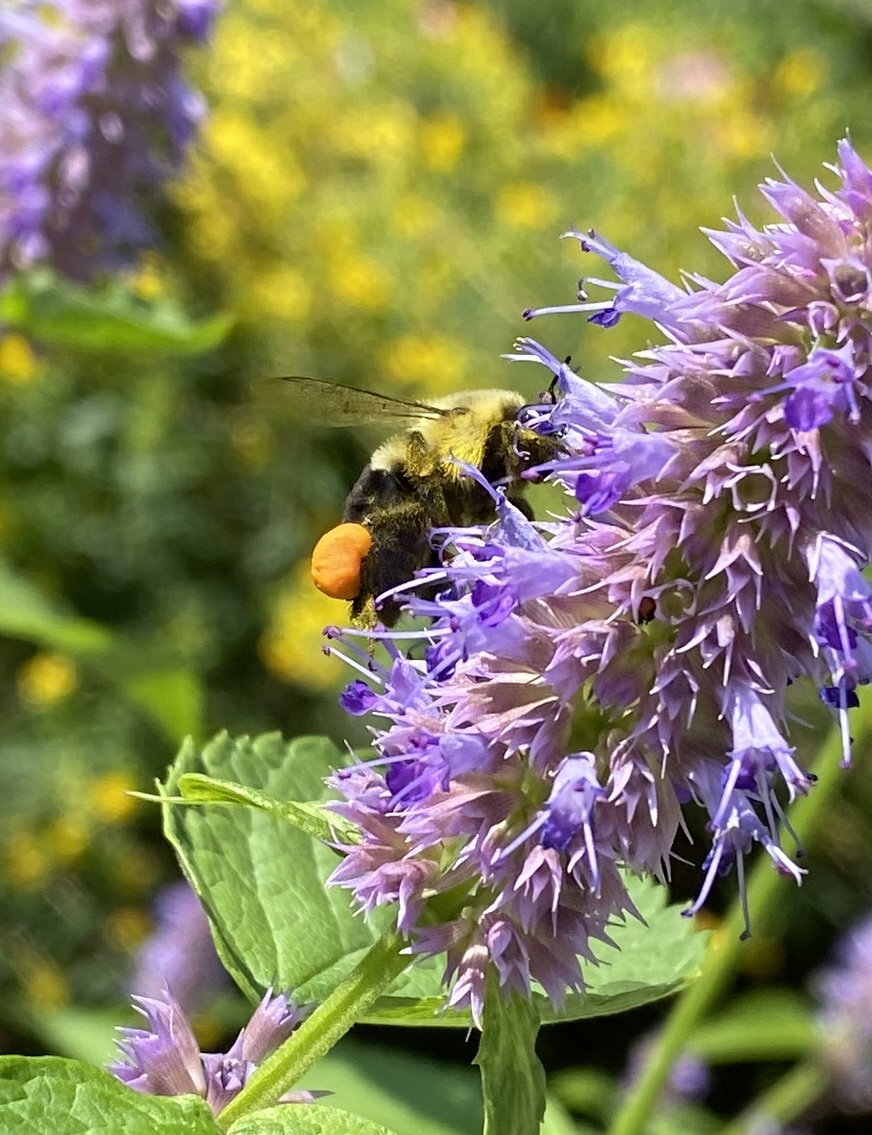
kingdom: Animalia
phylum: Arthropoda
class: Insecta
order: Hymenoptera
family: Apidae
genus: Bombus
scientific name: Bombus impatiens
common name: Common eastern bumble bee
